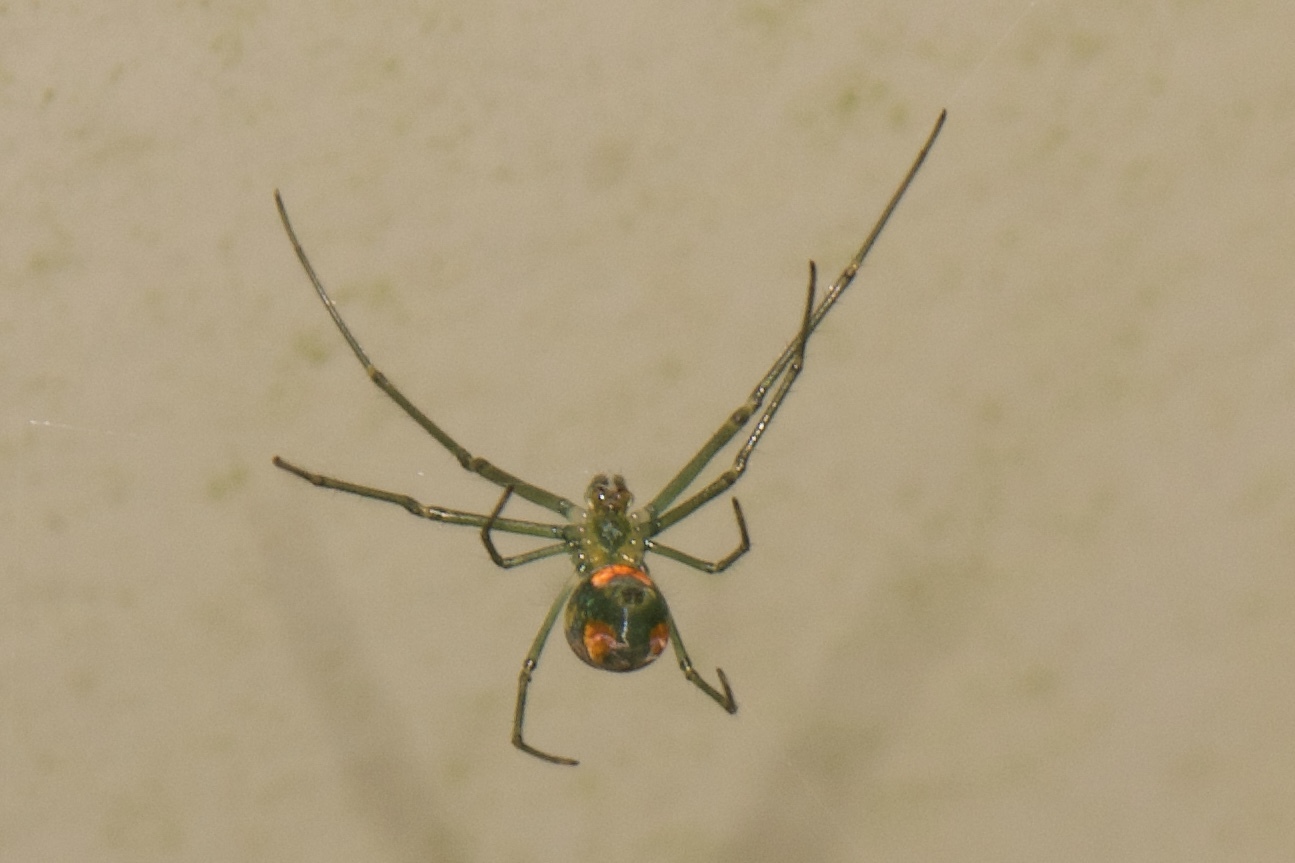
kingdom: Animalia
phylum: Arthropoda
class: Arachnida
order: Araneae
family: Tetragnathidae
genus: Leucauge
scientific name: Leucauge argyrobapta
